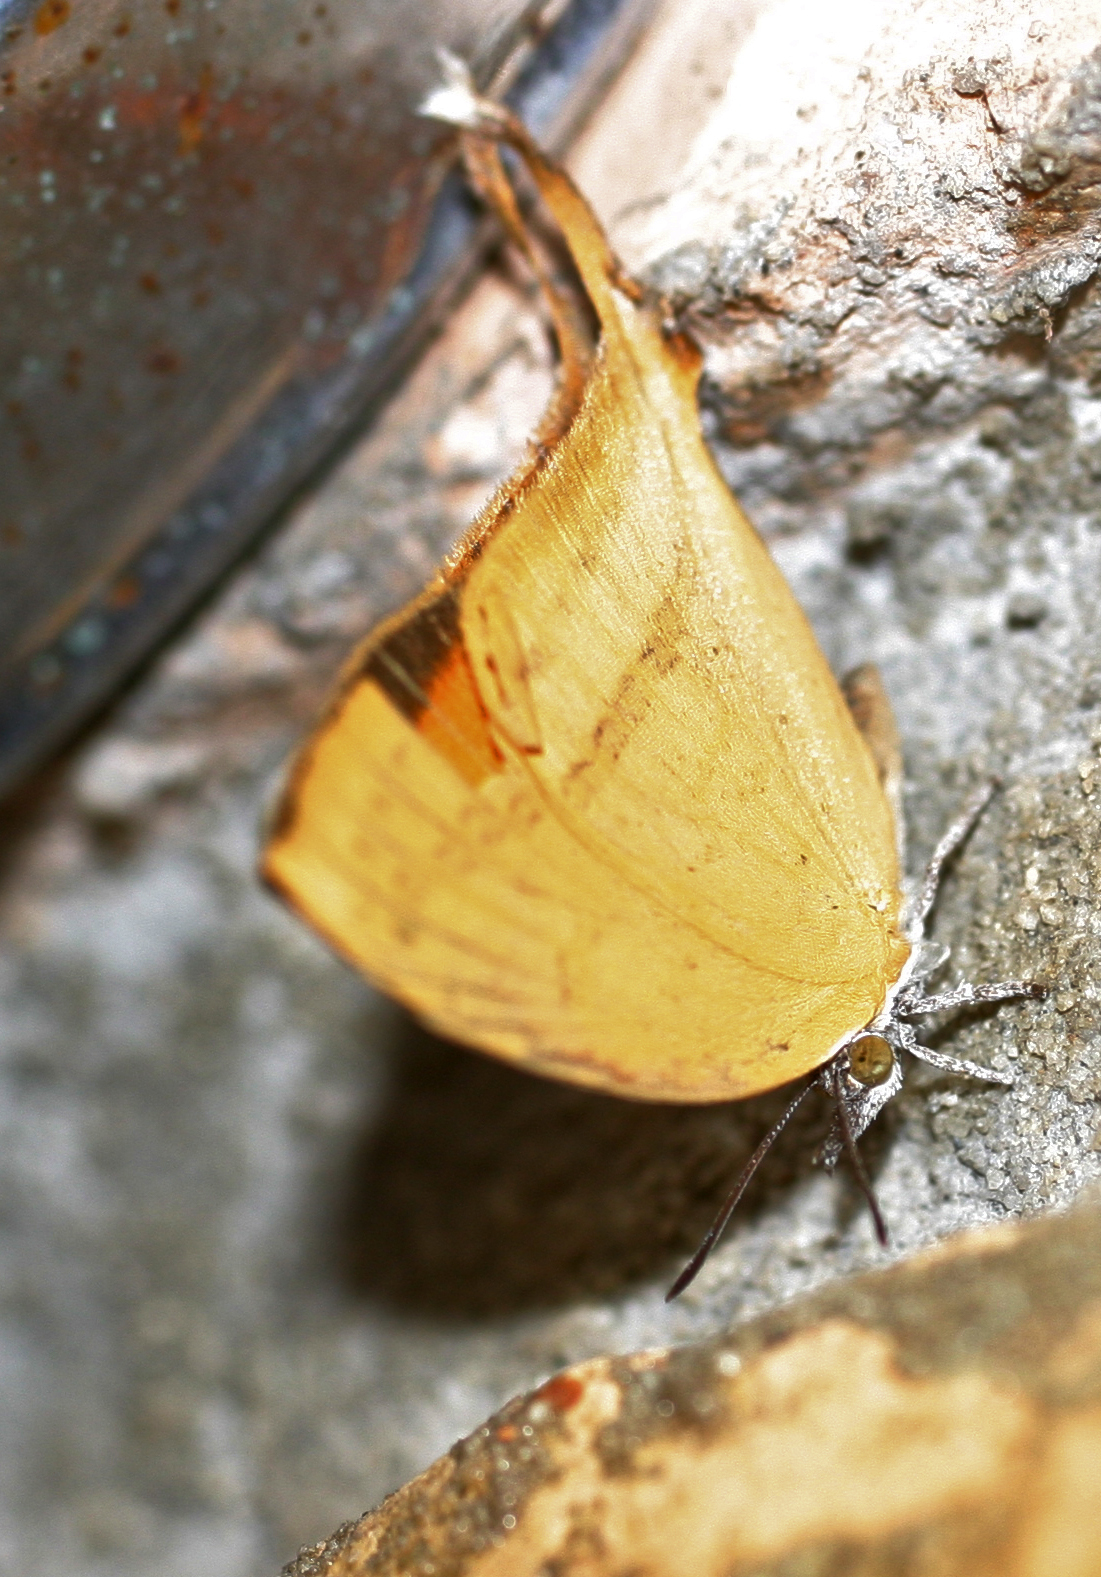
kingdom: Animalia
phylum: Arthropoda
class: Insecta
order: Lepidoptera
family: Lycaenidae
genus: Loxura
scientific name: Loxura atymnus
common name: Common yamfly
